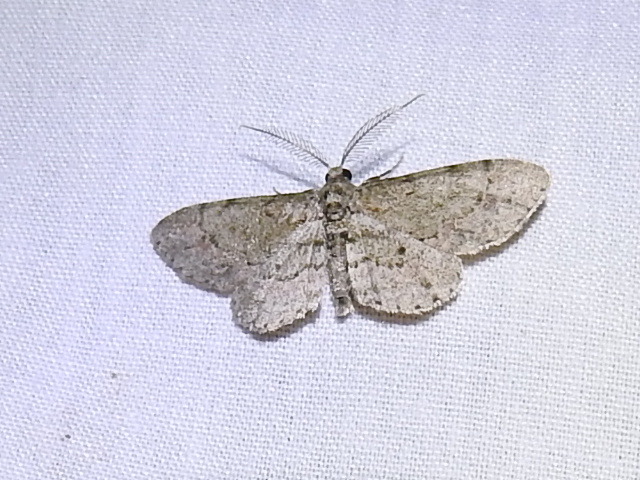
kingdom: Animalia
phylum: Arthropoda
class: Insecta
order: Lepidoptera
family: Geometridae
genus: Glenoides
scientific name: Glenoides texanaria
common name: Texas gray
